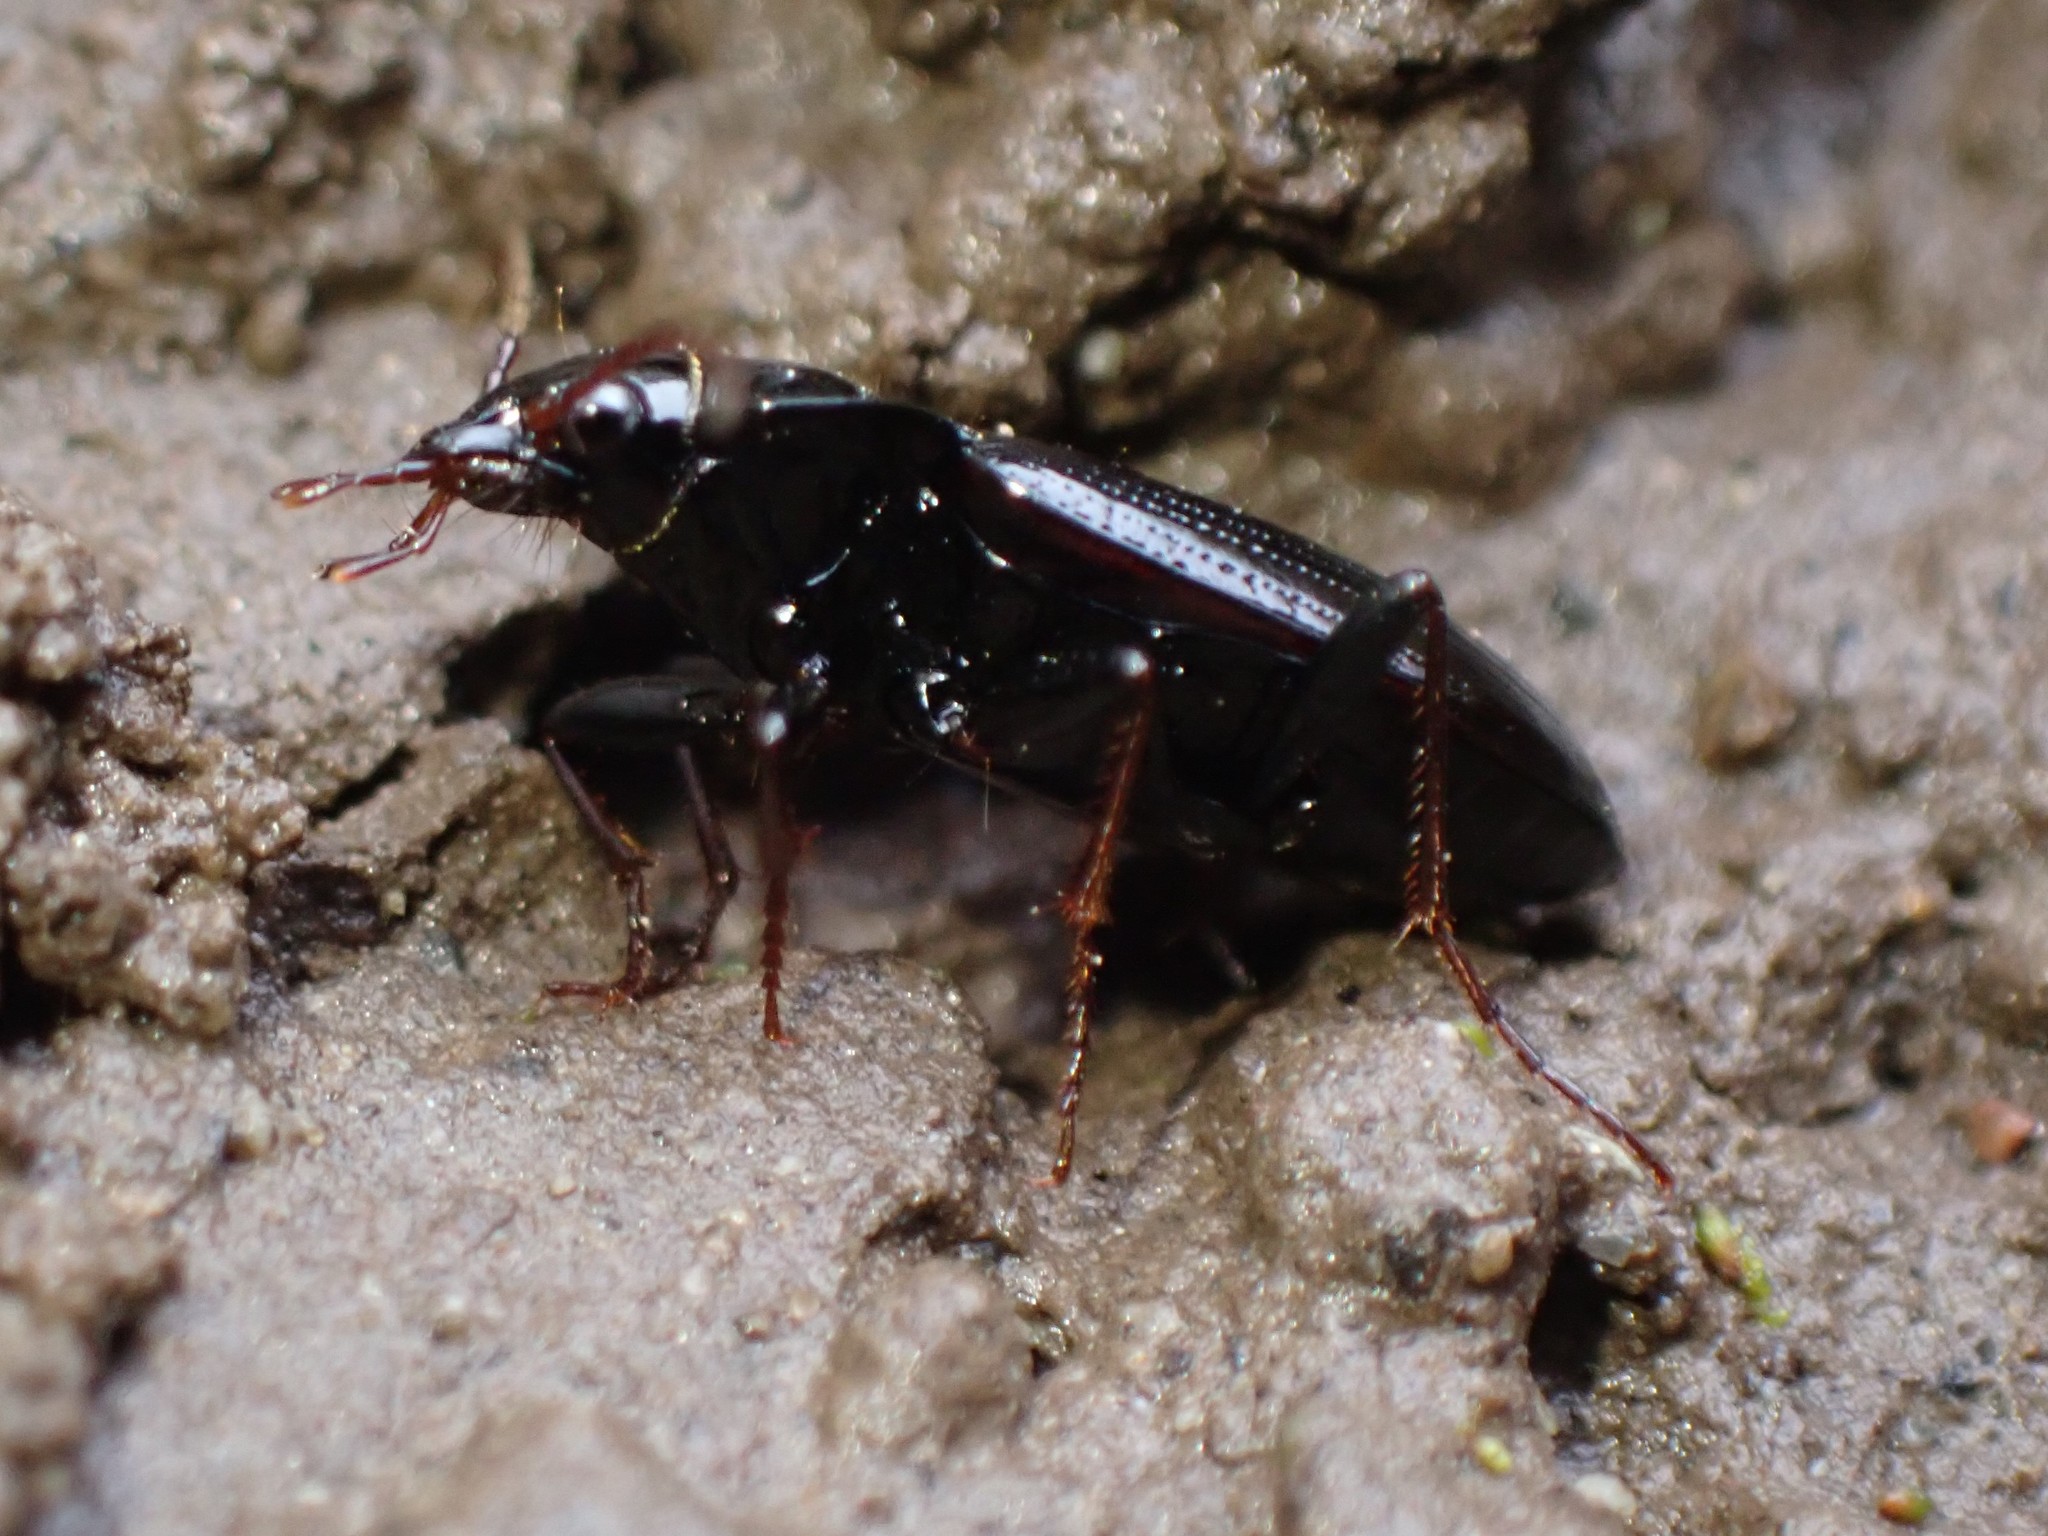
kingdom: Animalia
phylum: Arthropoda
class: Insecta
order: Coleoptera
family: Carabidae
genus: Nebria
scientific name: Nebria brevicollis
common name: Short-necked gazelle beetle
